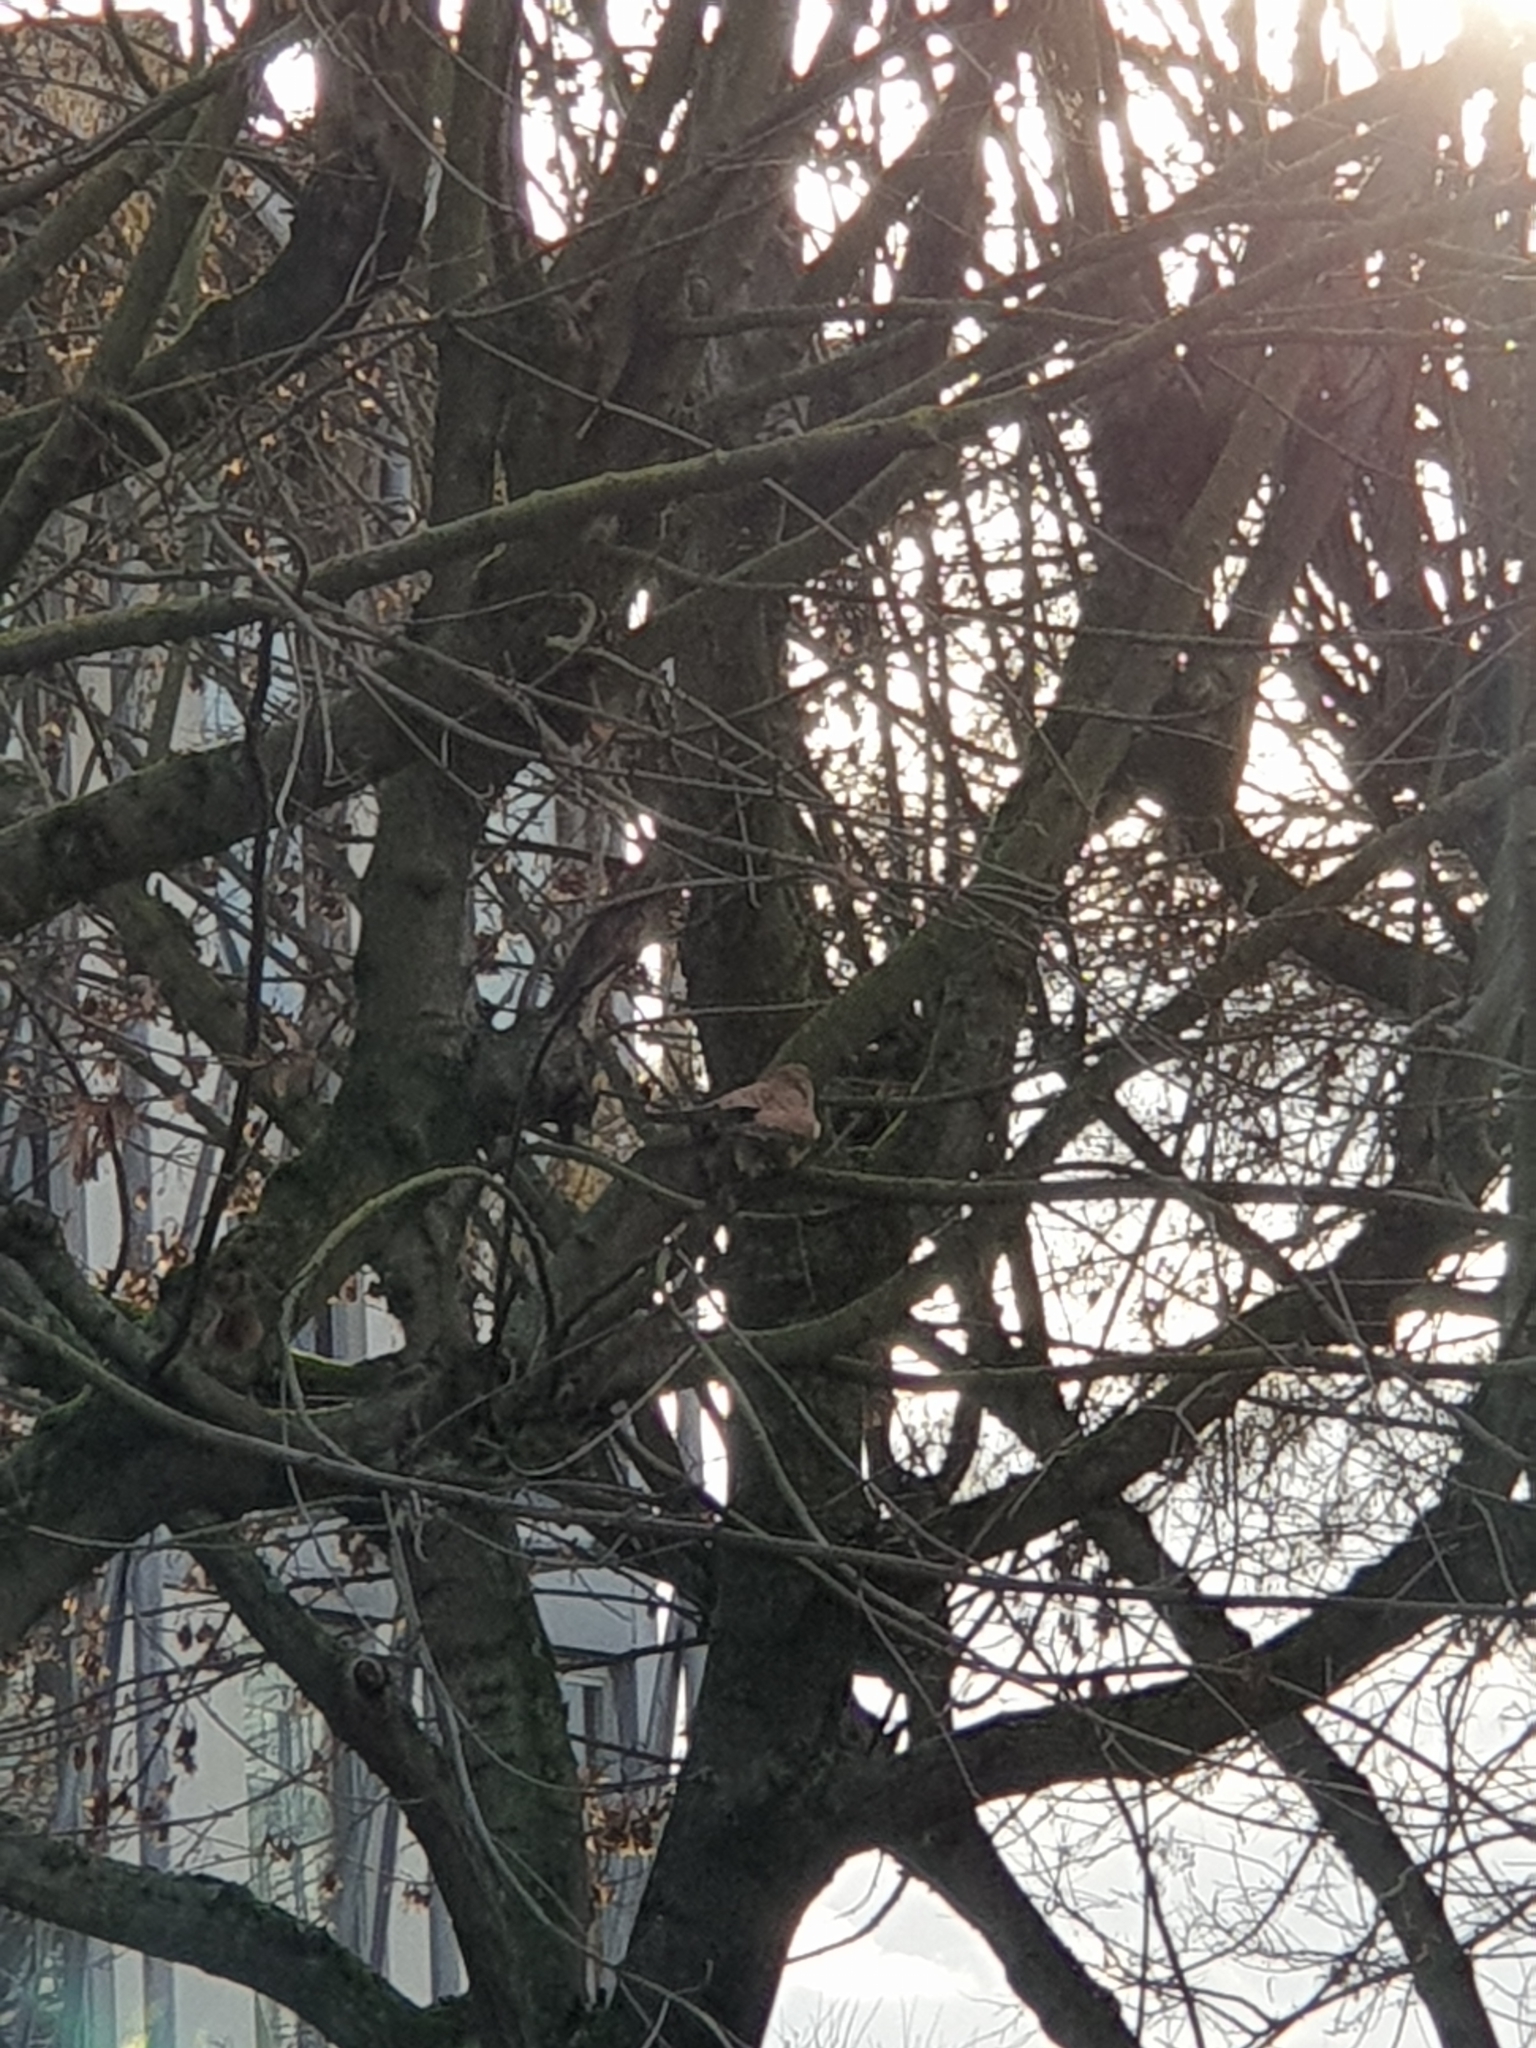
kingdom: Animalia
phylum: Chordata
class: Aves
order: Falconiformes
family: Falconidae
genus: Falco
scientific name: Falco tinnunculus
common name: Common kestrel
